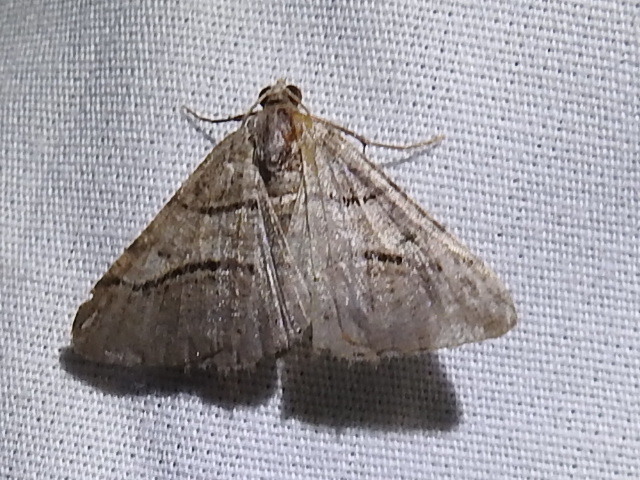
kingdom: Animalia
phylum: Arthropoda
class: Insecta
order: Lepidoptera
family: Geometridae
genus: Digrammia
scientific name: Digrammia continuata
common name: Curve-lined angle
